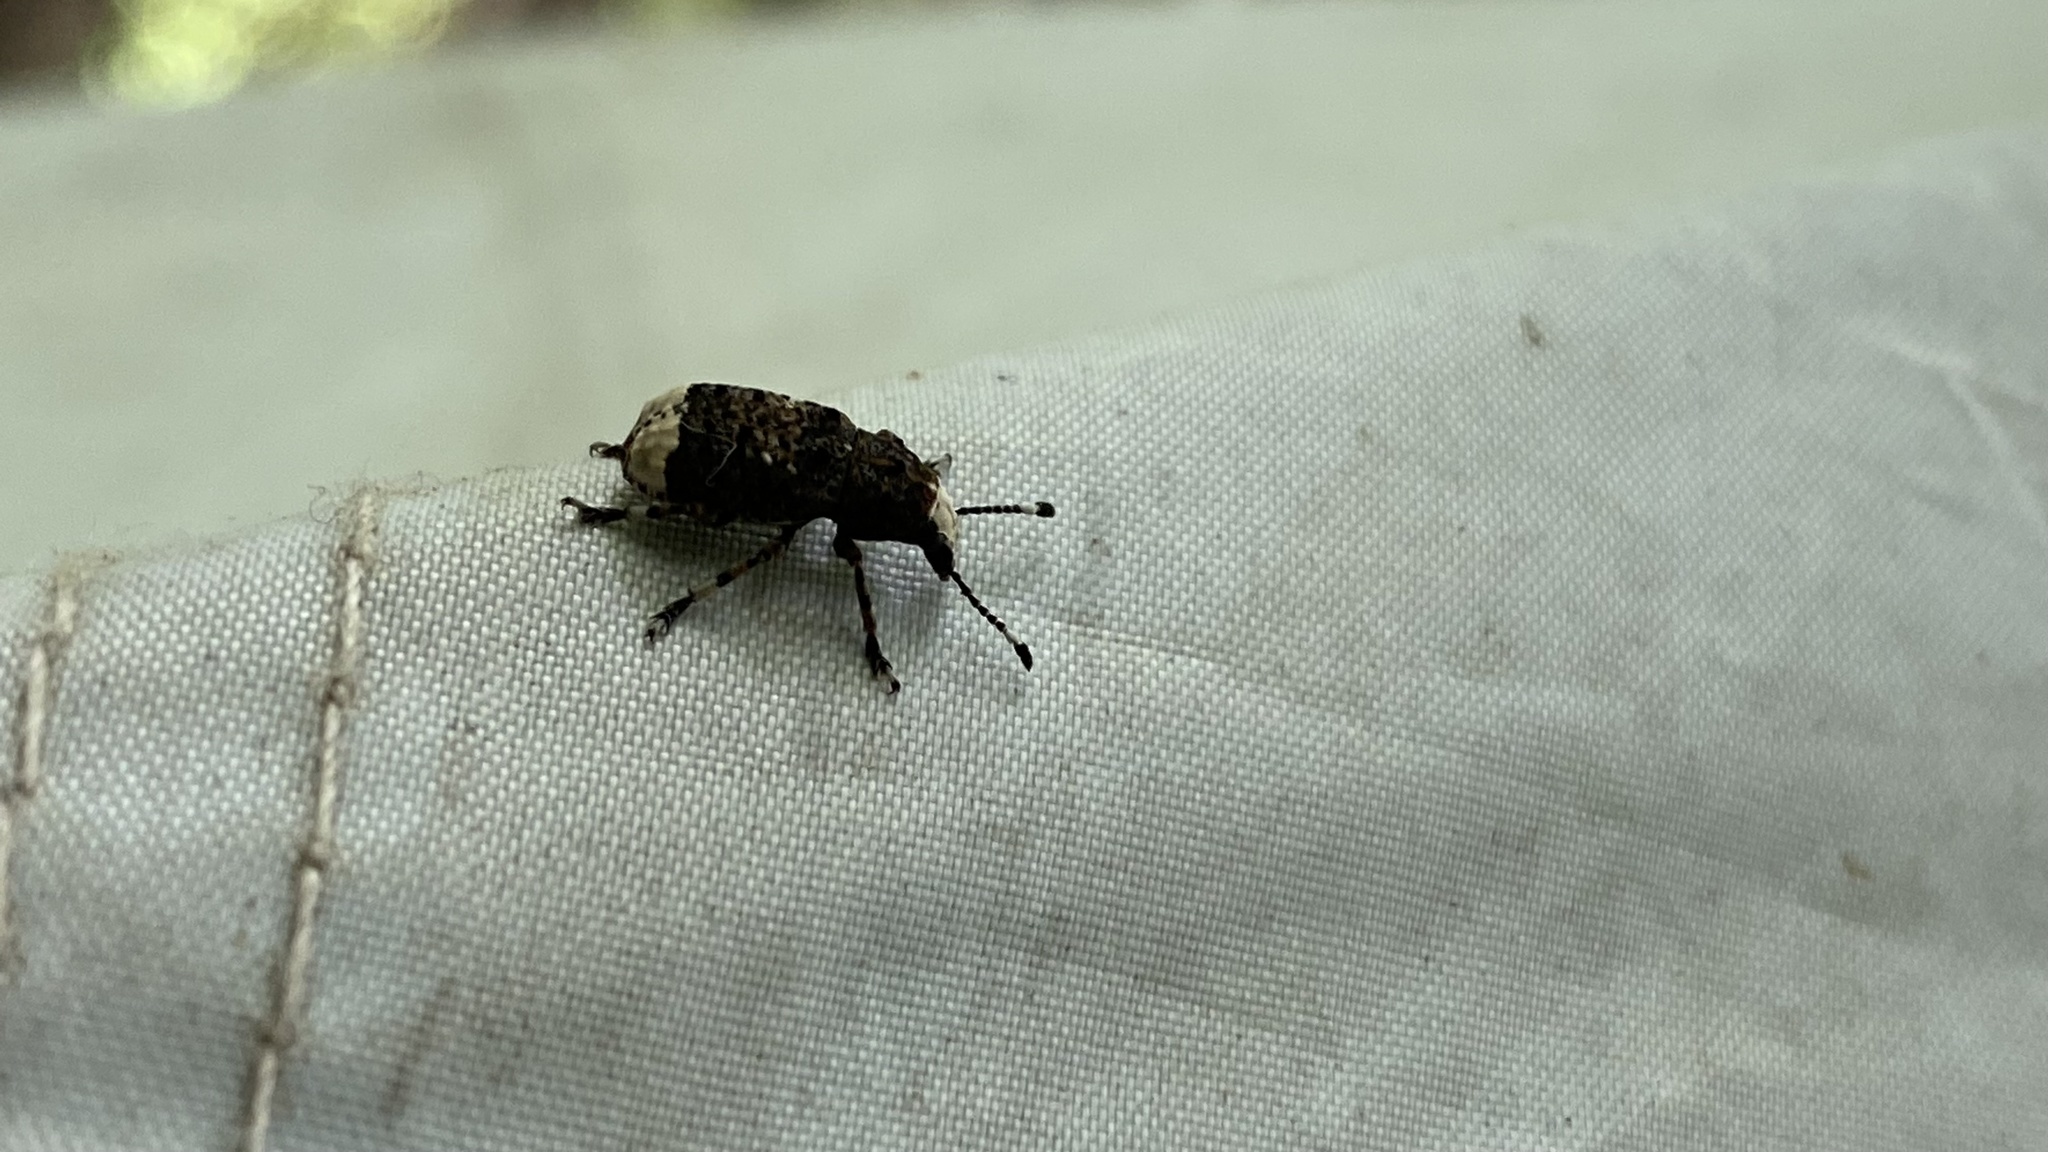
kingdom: Animalia
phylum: Arthropoda
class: Insecta
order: Coleoptera
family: Anthribidae
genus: Platystomos
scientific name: Platystomos albinus
